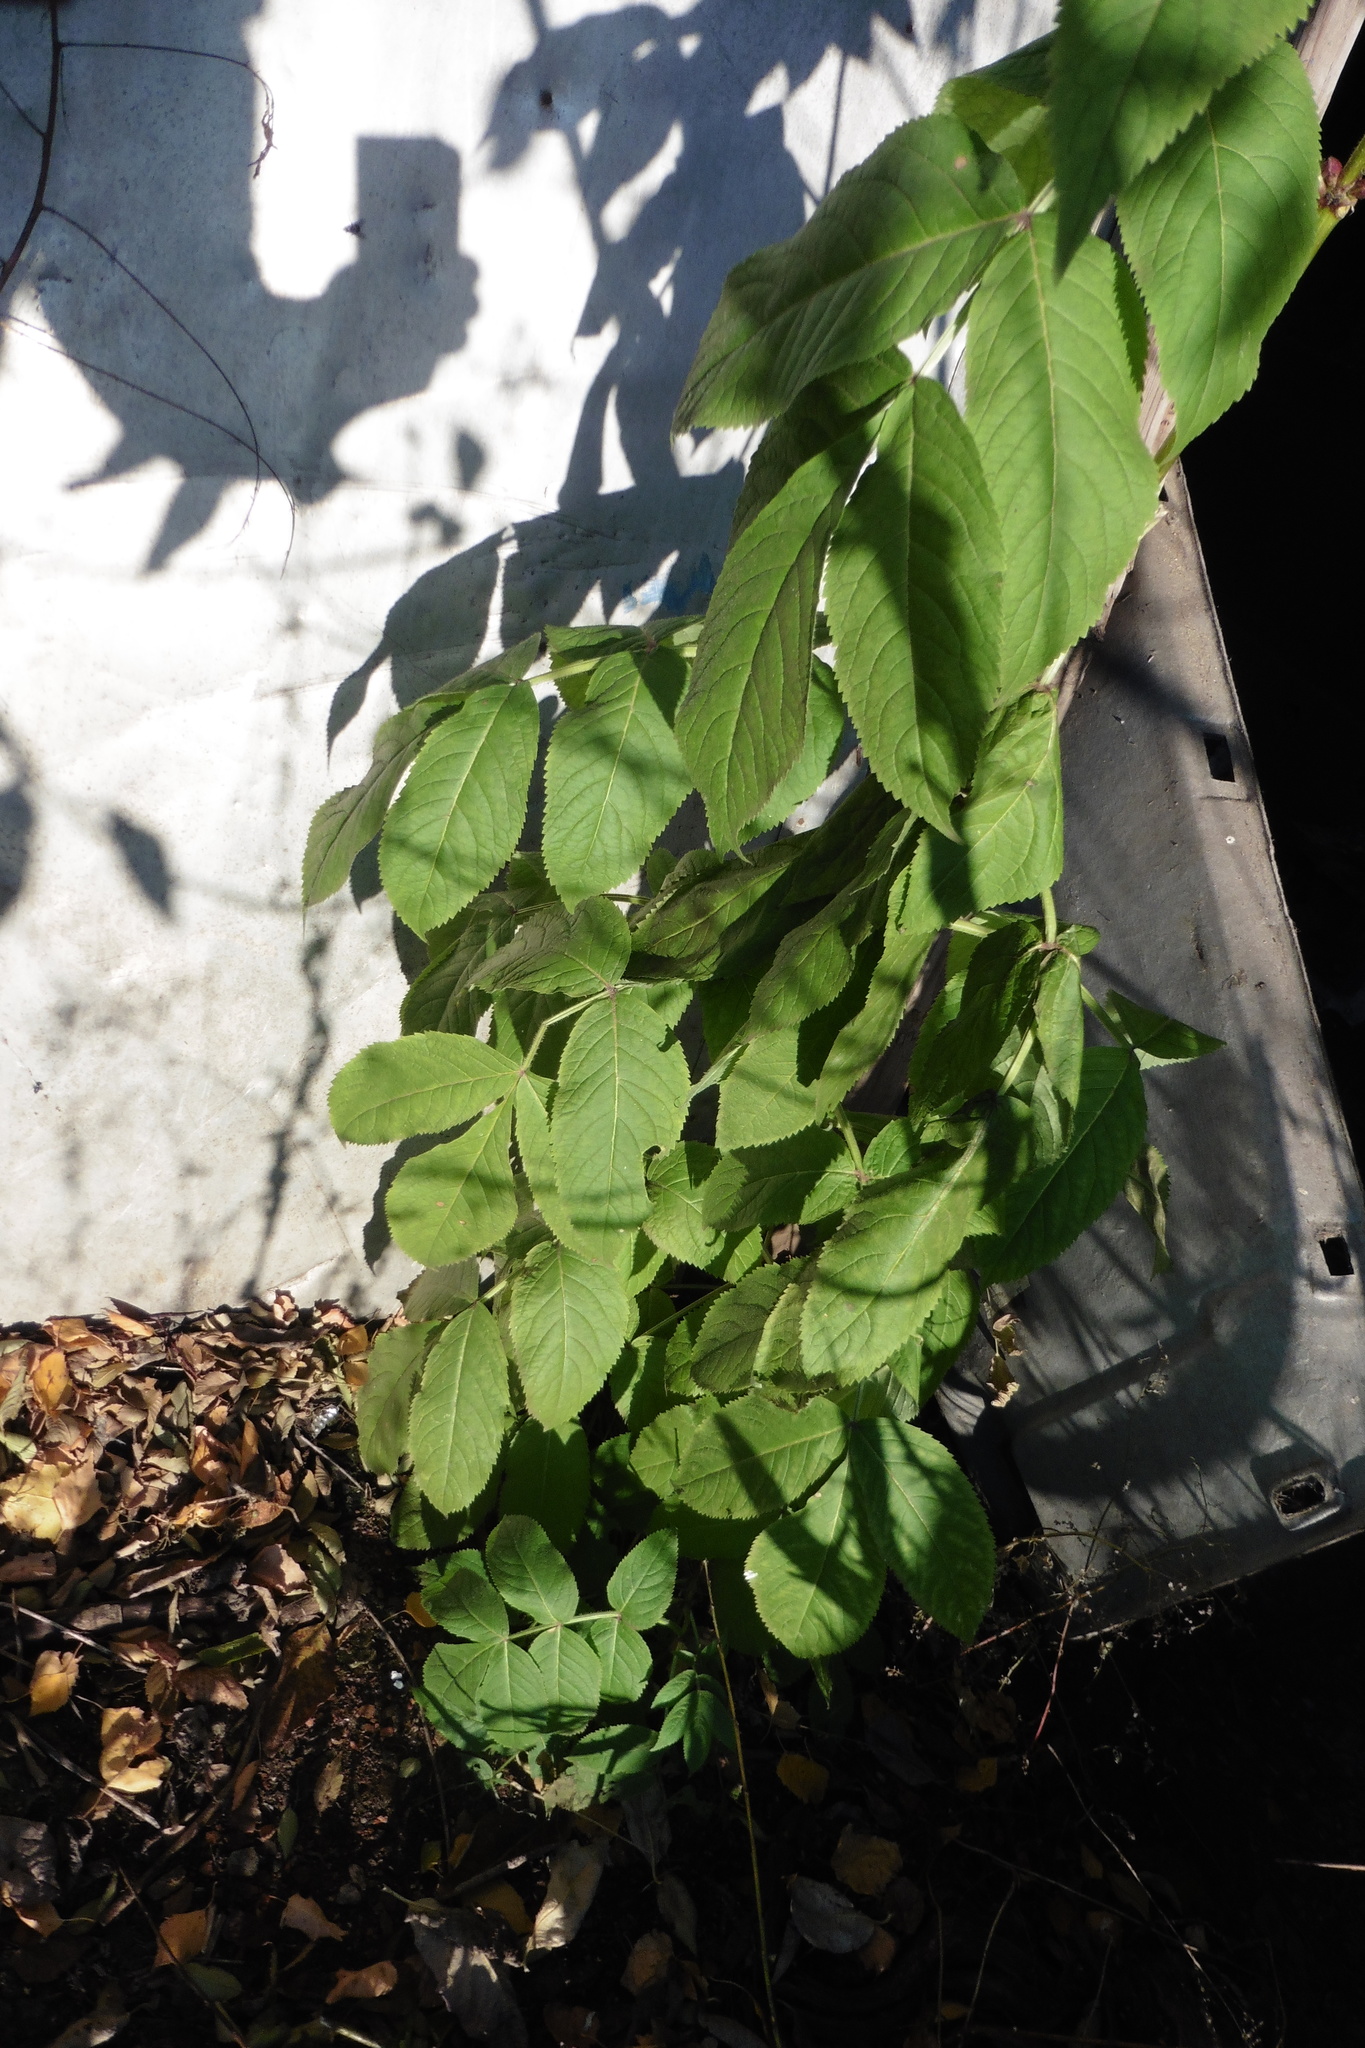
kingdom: Plantae
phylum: Tracheophyta
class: Magnoliopsida
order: Dipsacales
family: Viburnaceae
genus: Sambucus
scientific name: Sambucus racemosa
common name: Red-berried elder
